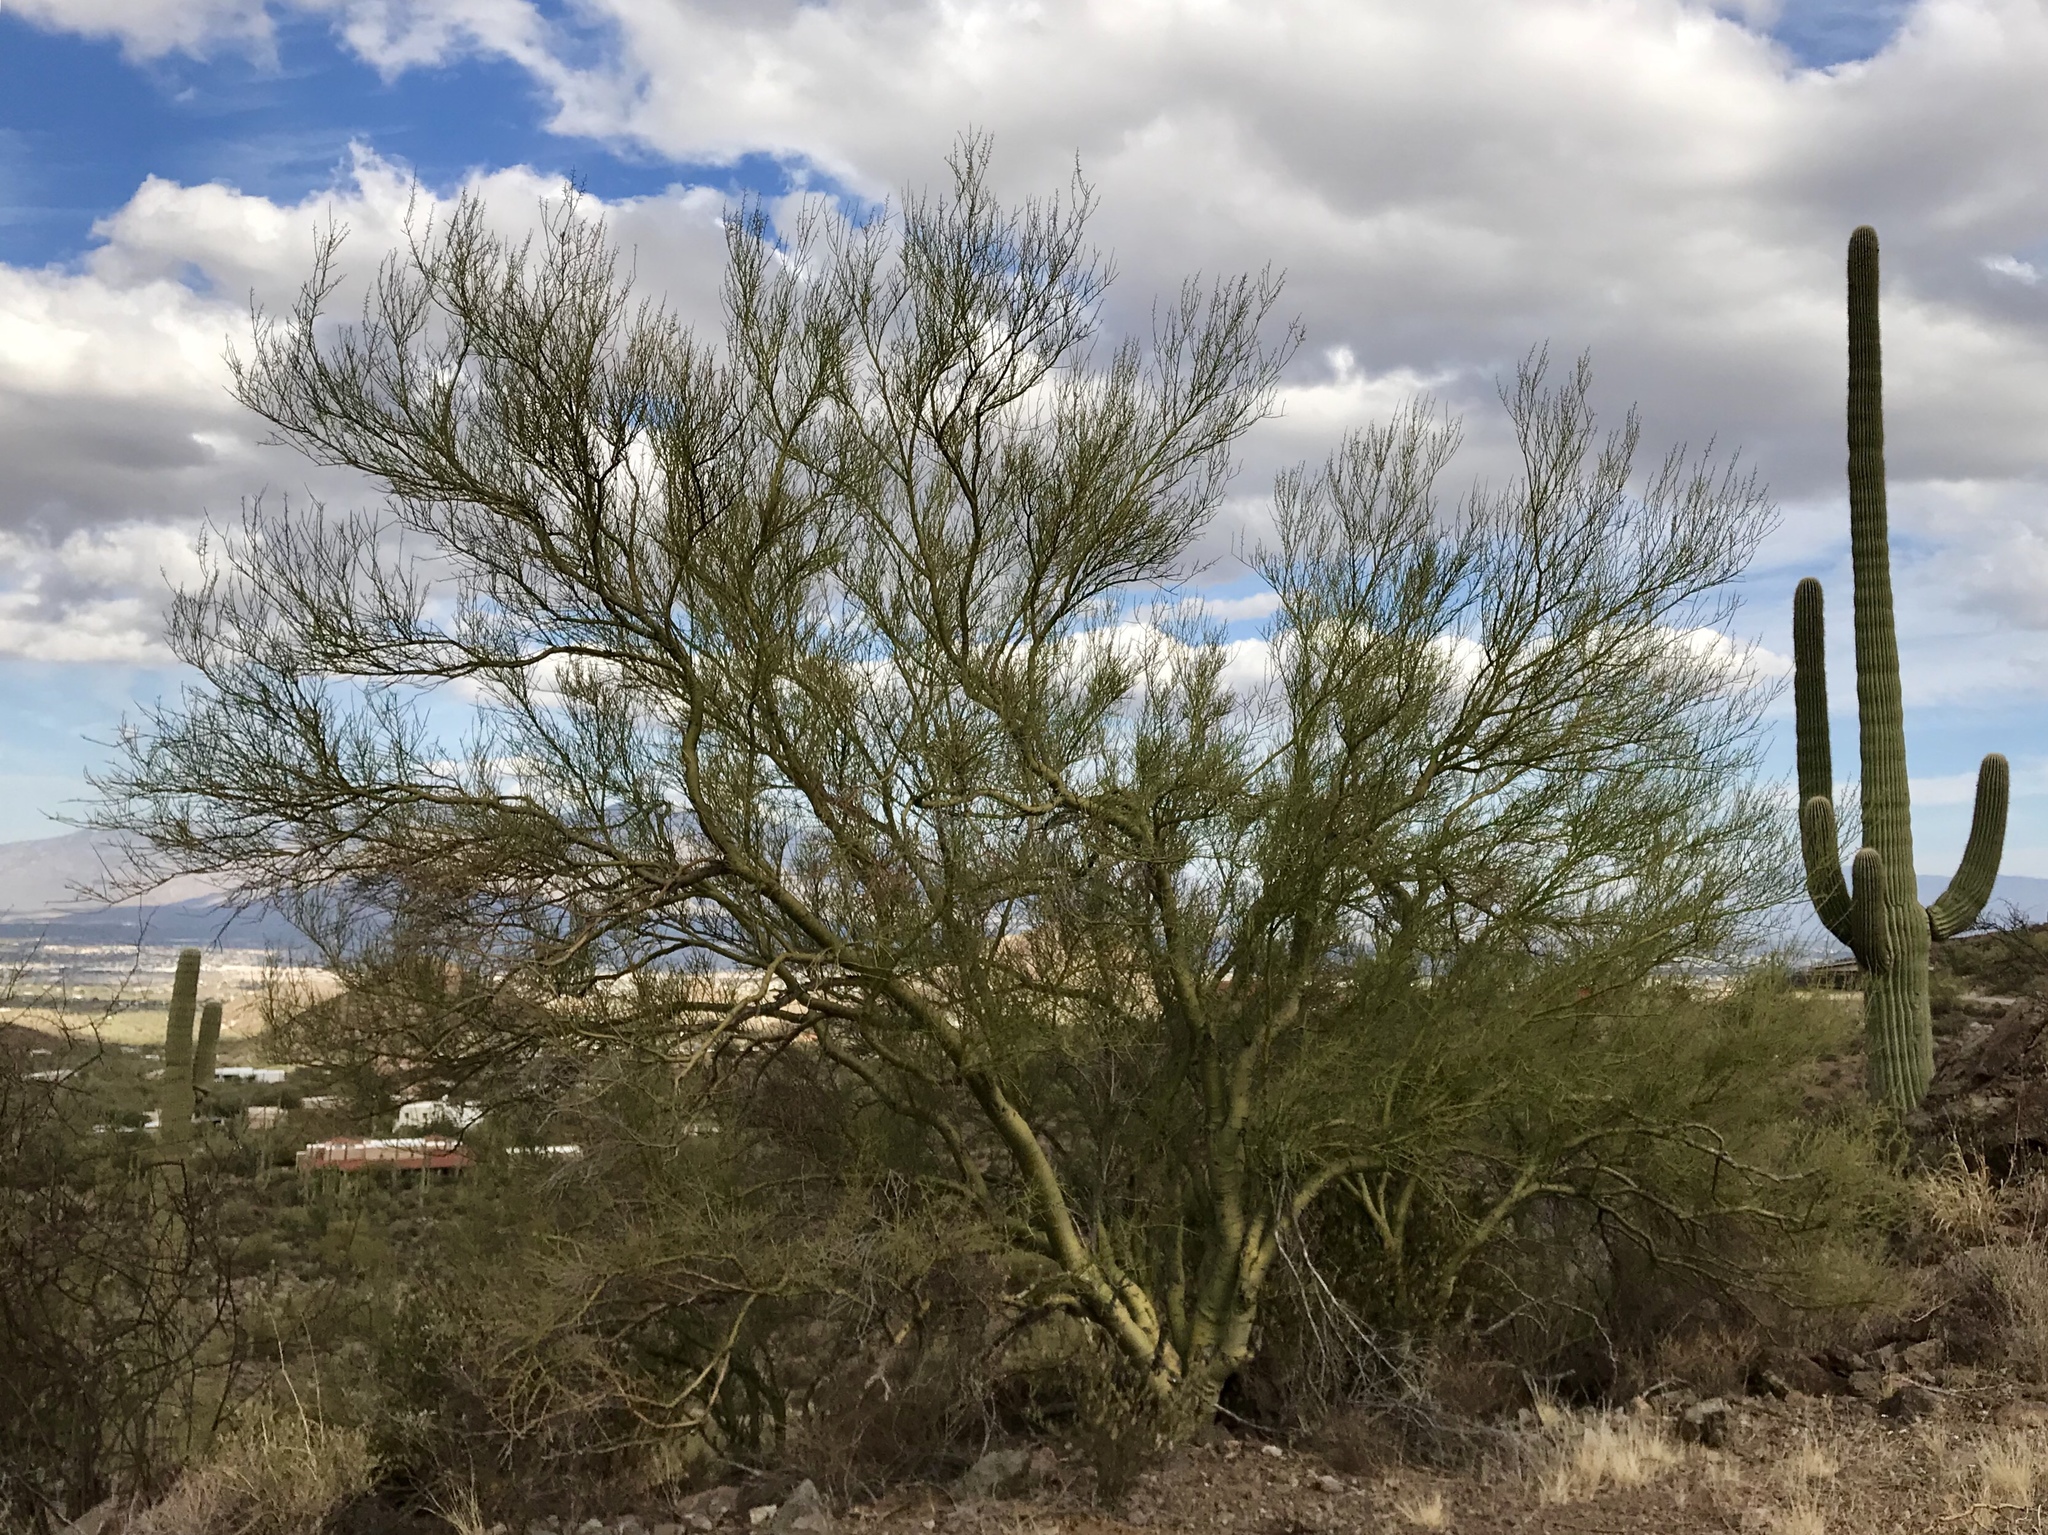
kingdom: Plantae
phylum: Tracheophyta
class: Magnoliopsida
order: Fabales
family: Fabaceae
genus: Parkinsonia
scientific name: Parkinsonia microphylla
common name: Yellow paloverde
